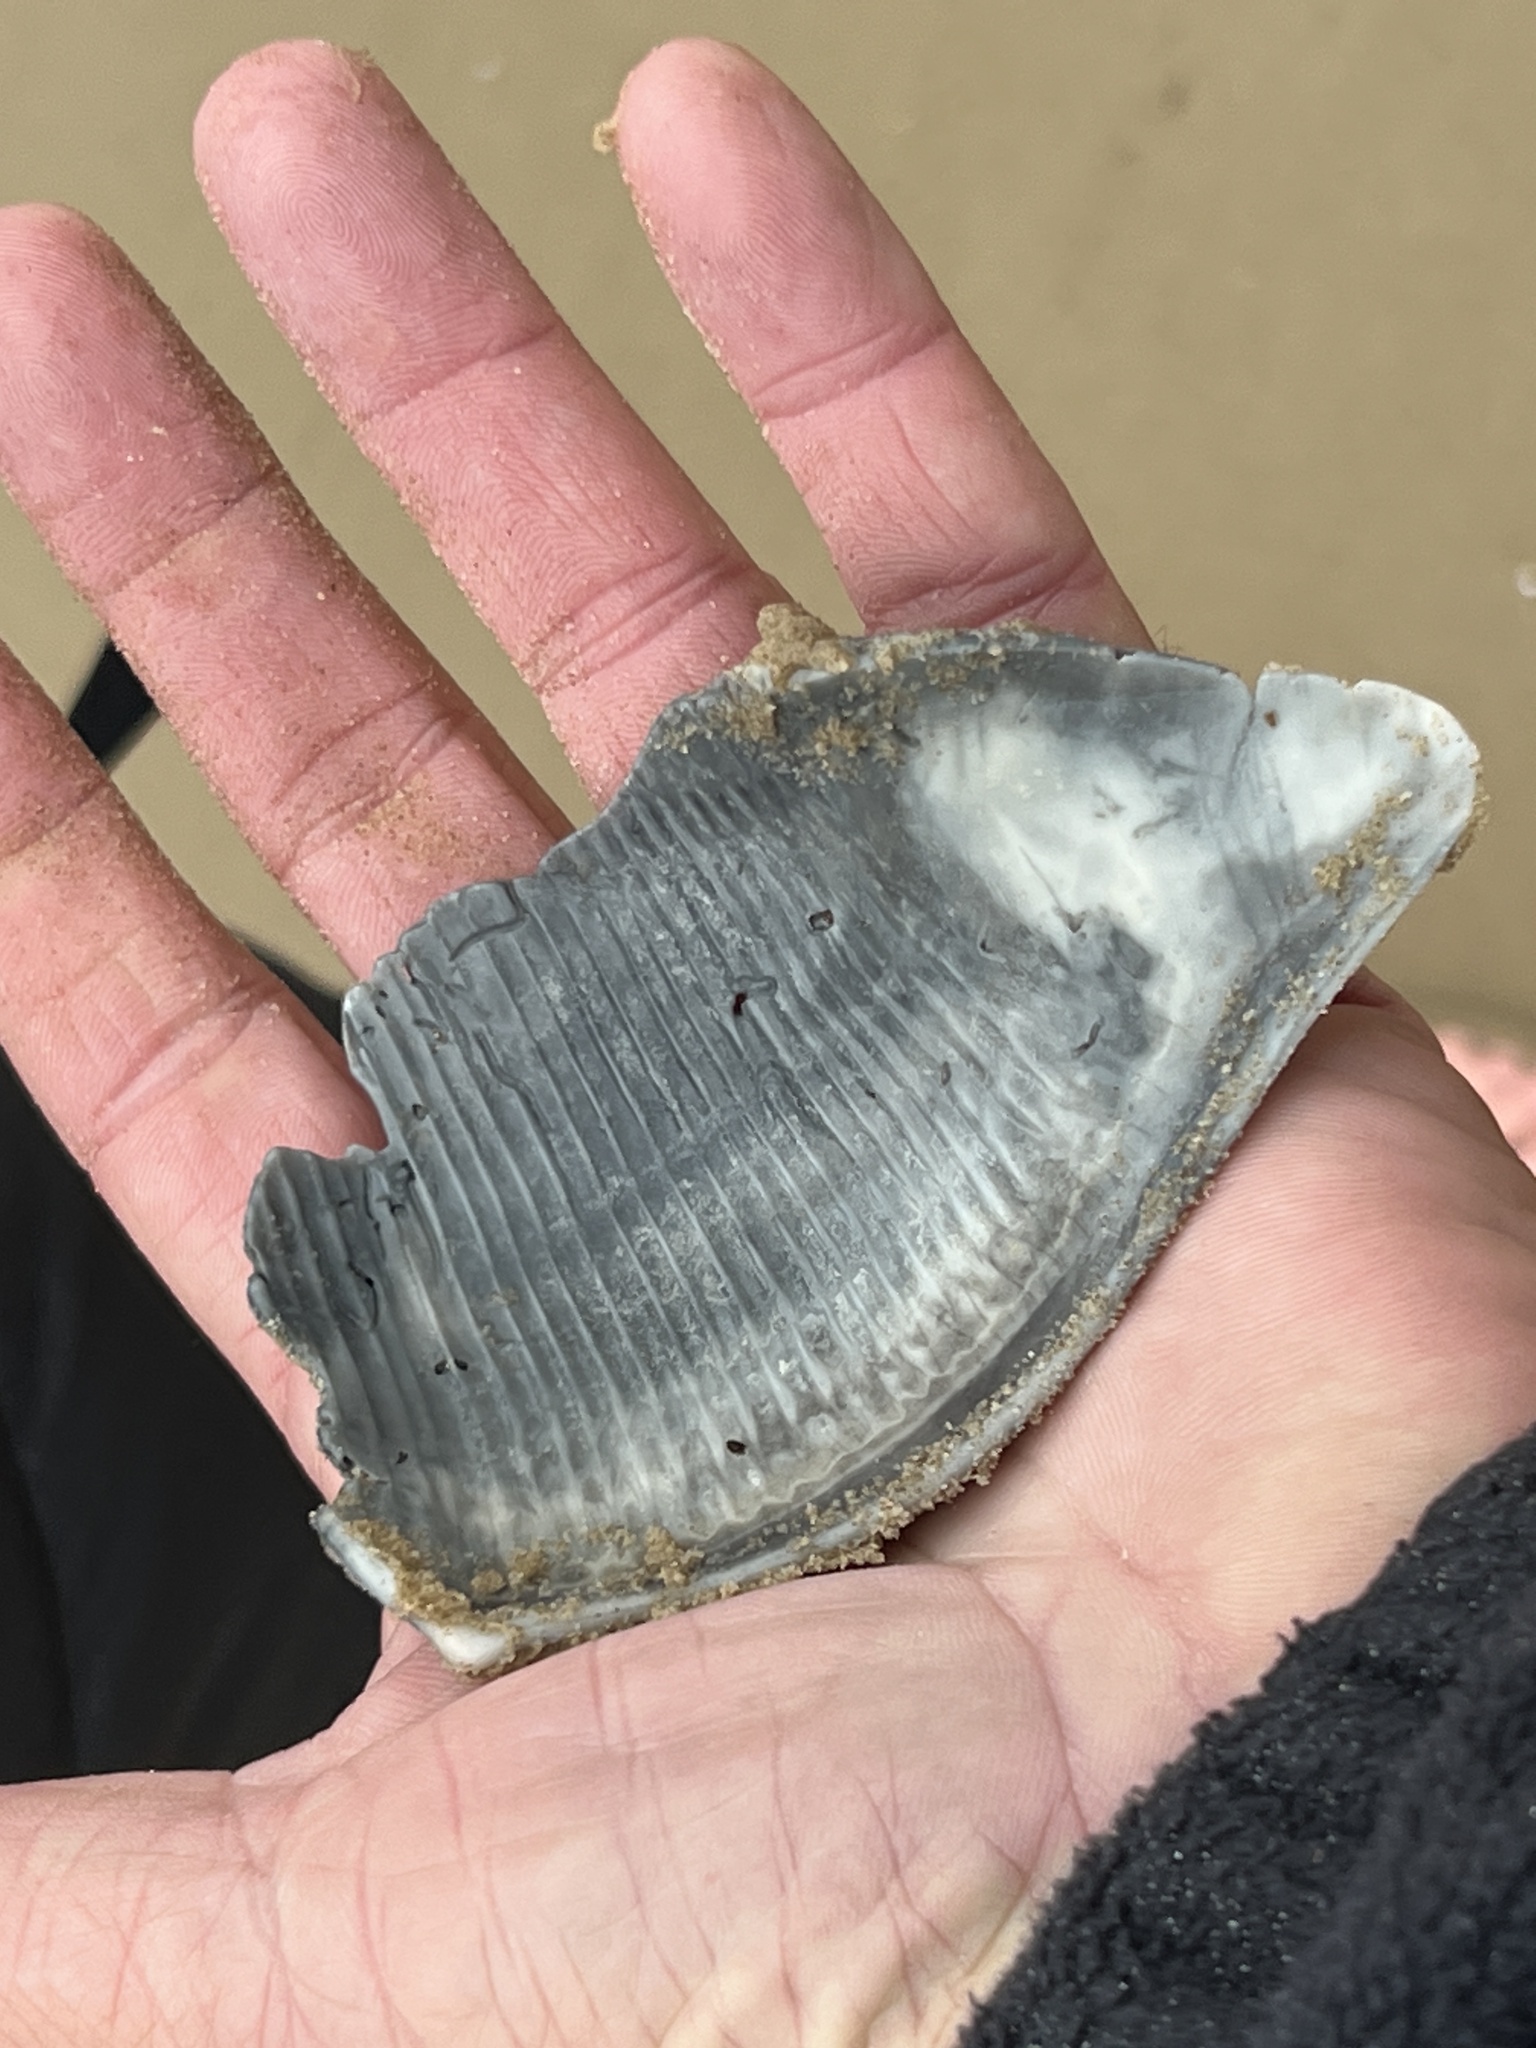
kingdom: Animalia
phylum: Mollusca
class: Gastropoda
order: Neogastropoda
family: Busyconidae
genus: Sinistrofulgur
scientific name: Sinistrofulgur pulleyi
